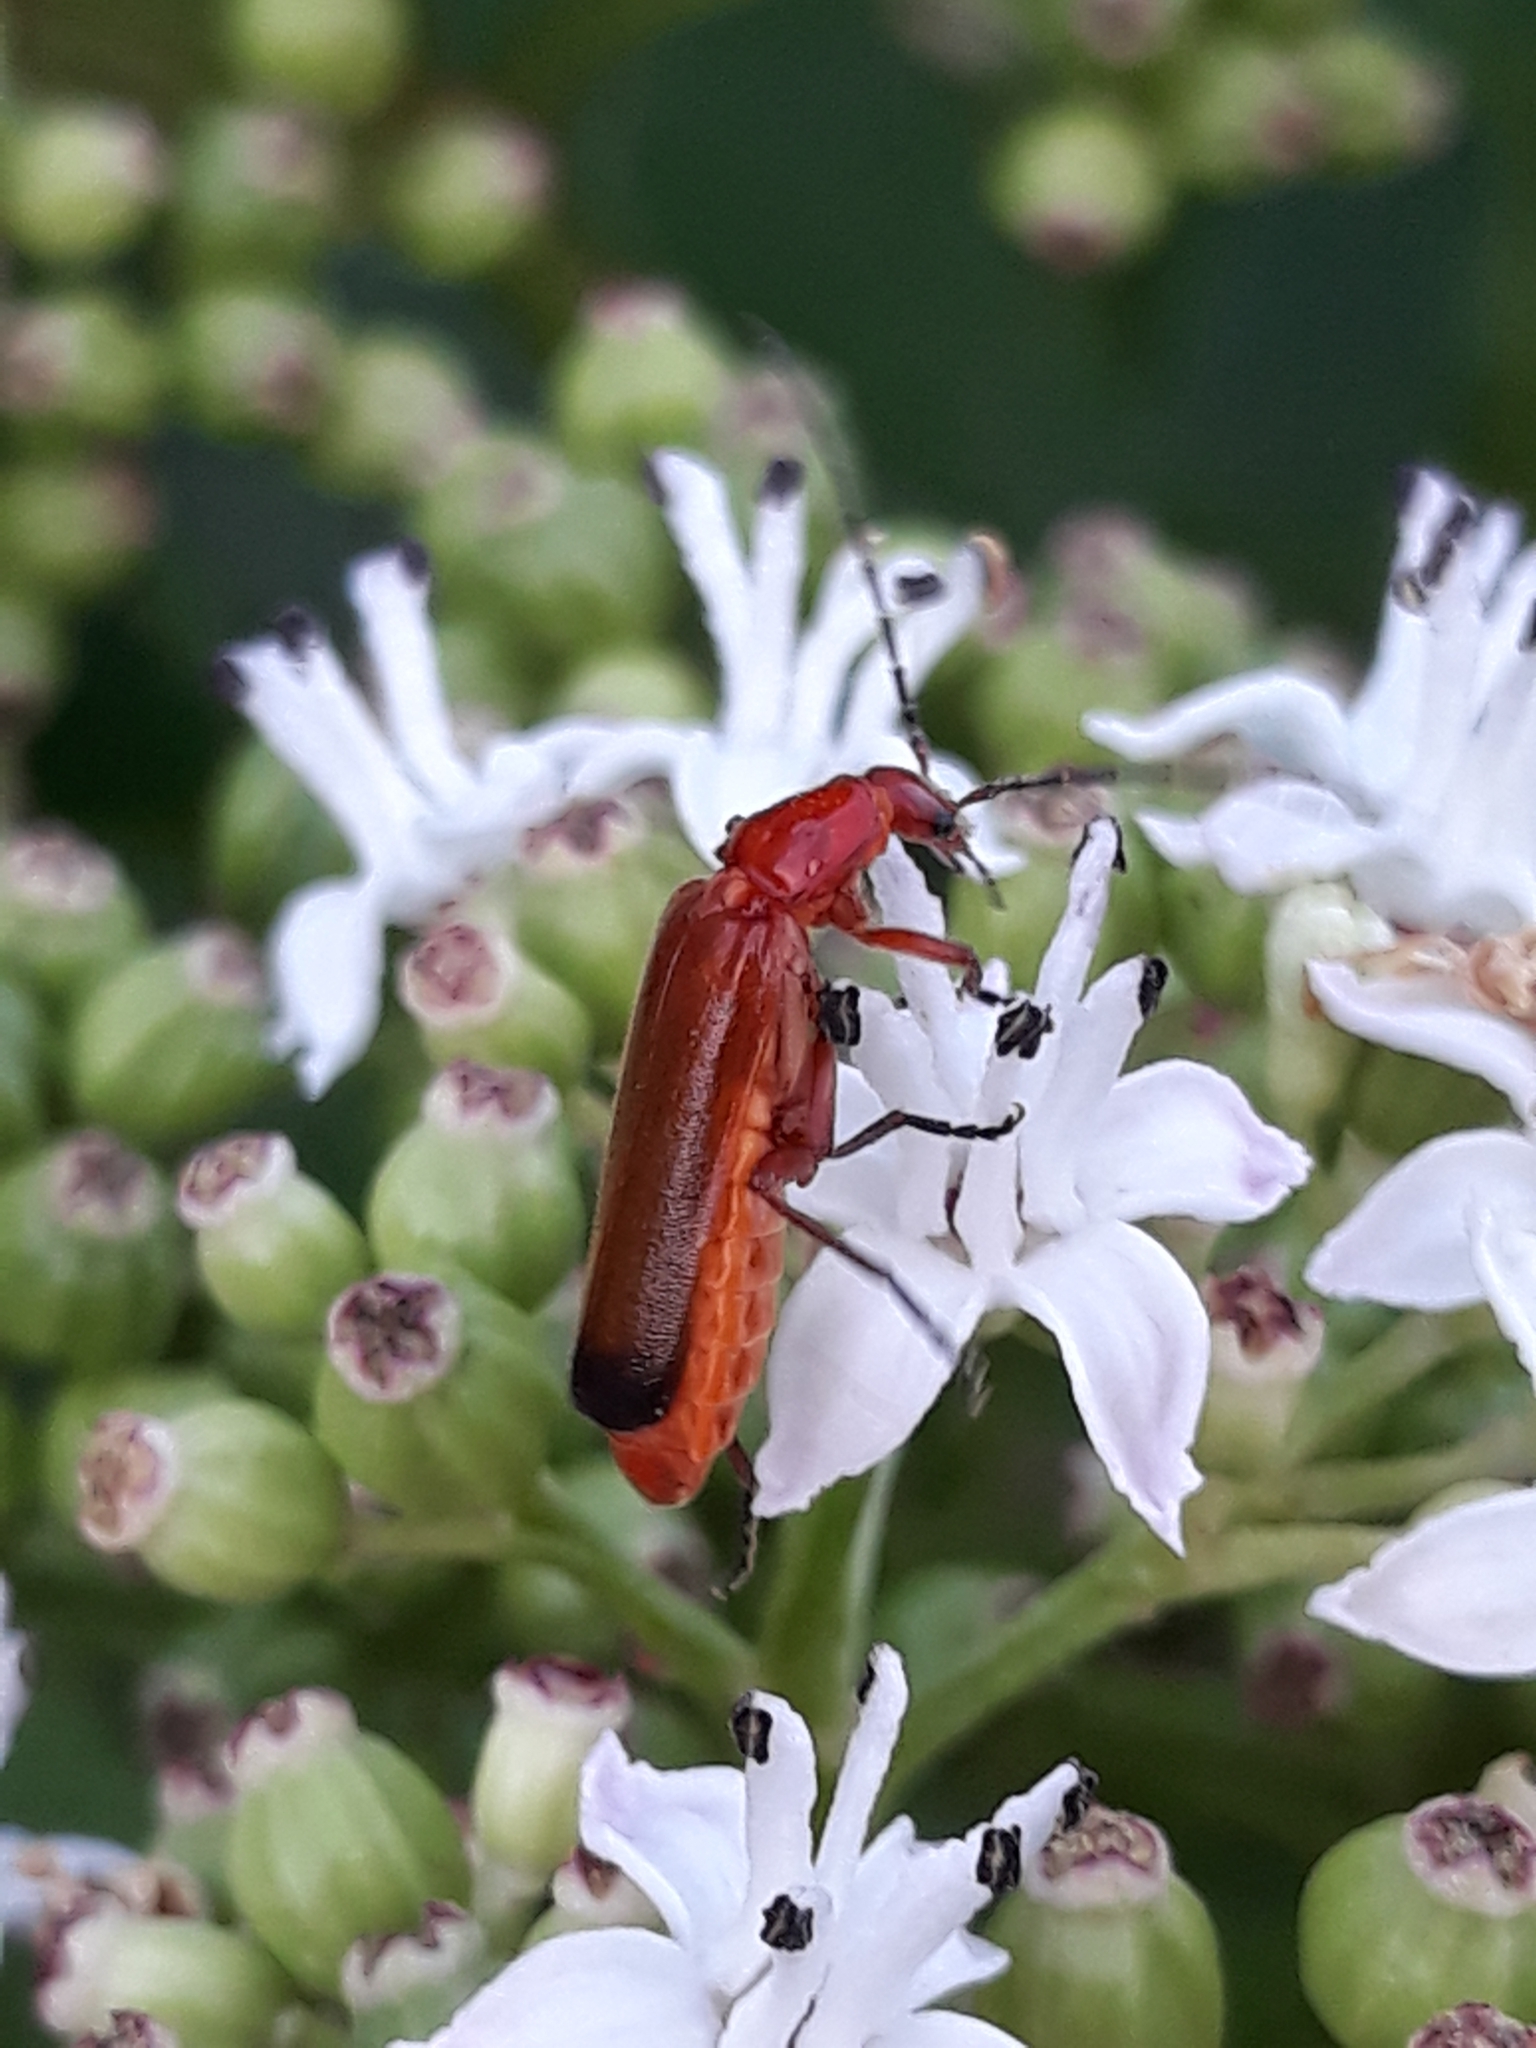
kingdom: Animalia
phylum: Arthropoda
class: Insecta
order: Coleoptera
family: Cantharidae
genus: Rhagonycha
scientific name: Rhagonycha fulva
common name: Common red soldier beetle
